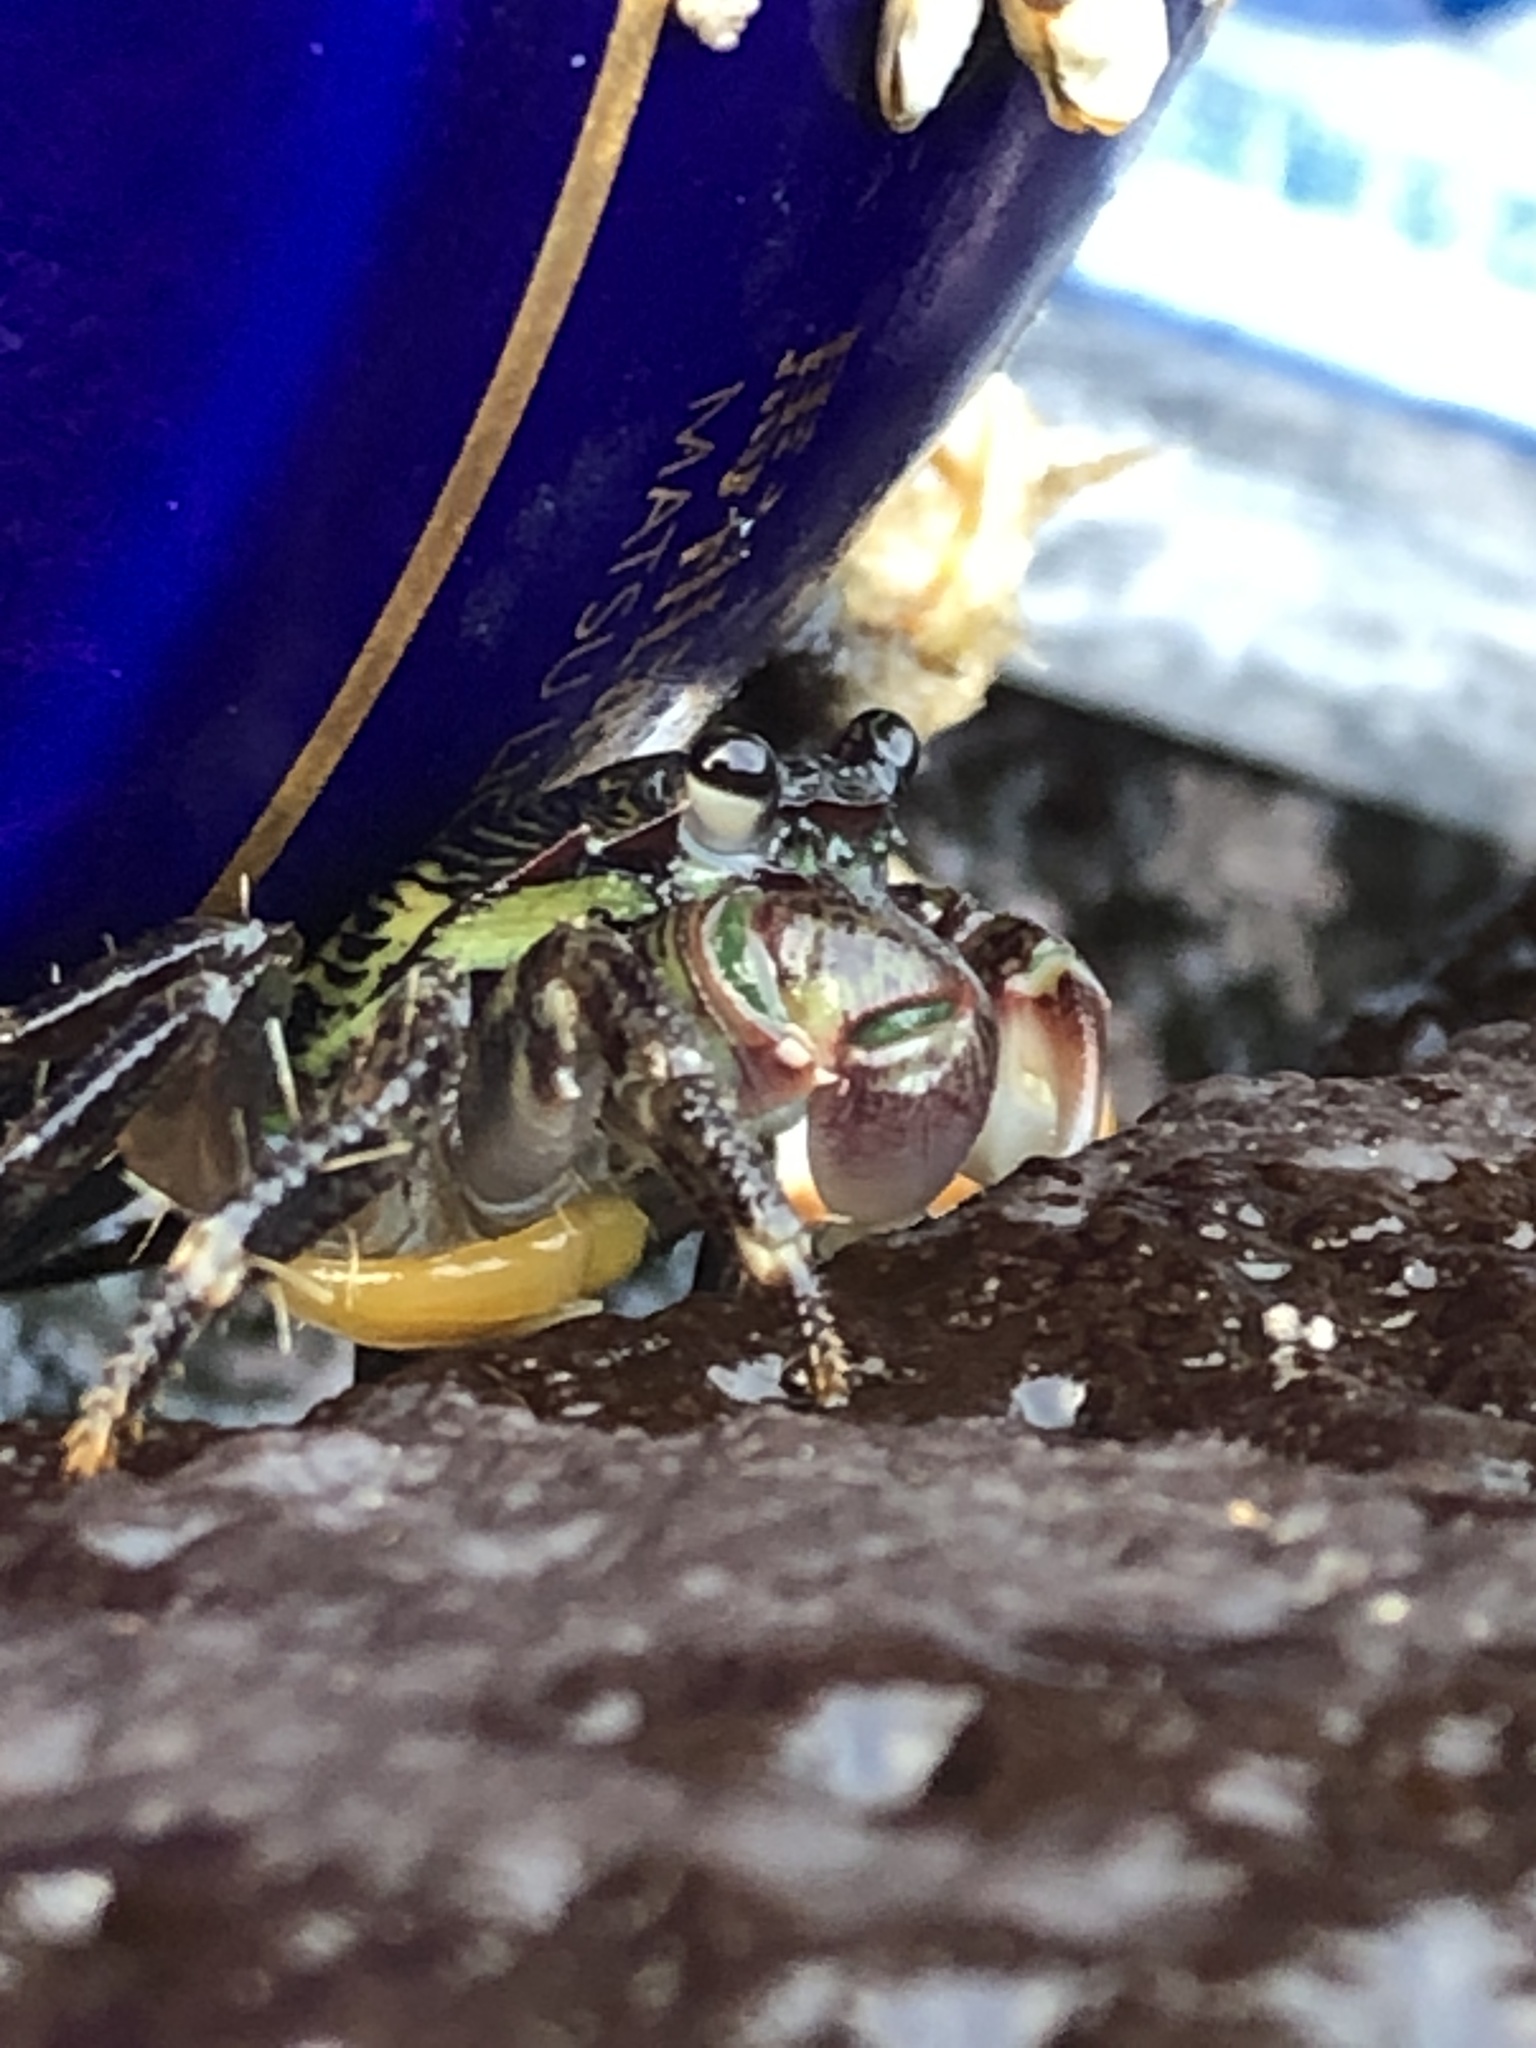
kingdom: Animalia
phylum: Arthropoda
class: Malacostraca
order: Decapoda
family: Grapsidae
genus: Pachygrapsus
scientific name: Pachygrapsus crassipes
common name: Striped shore crab
